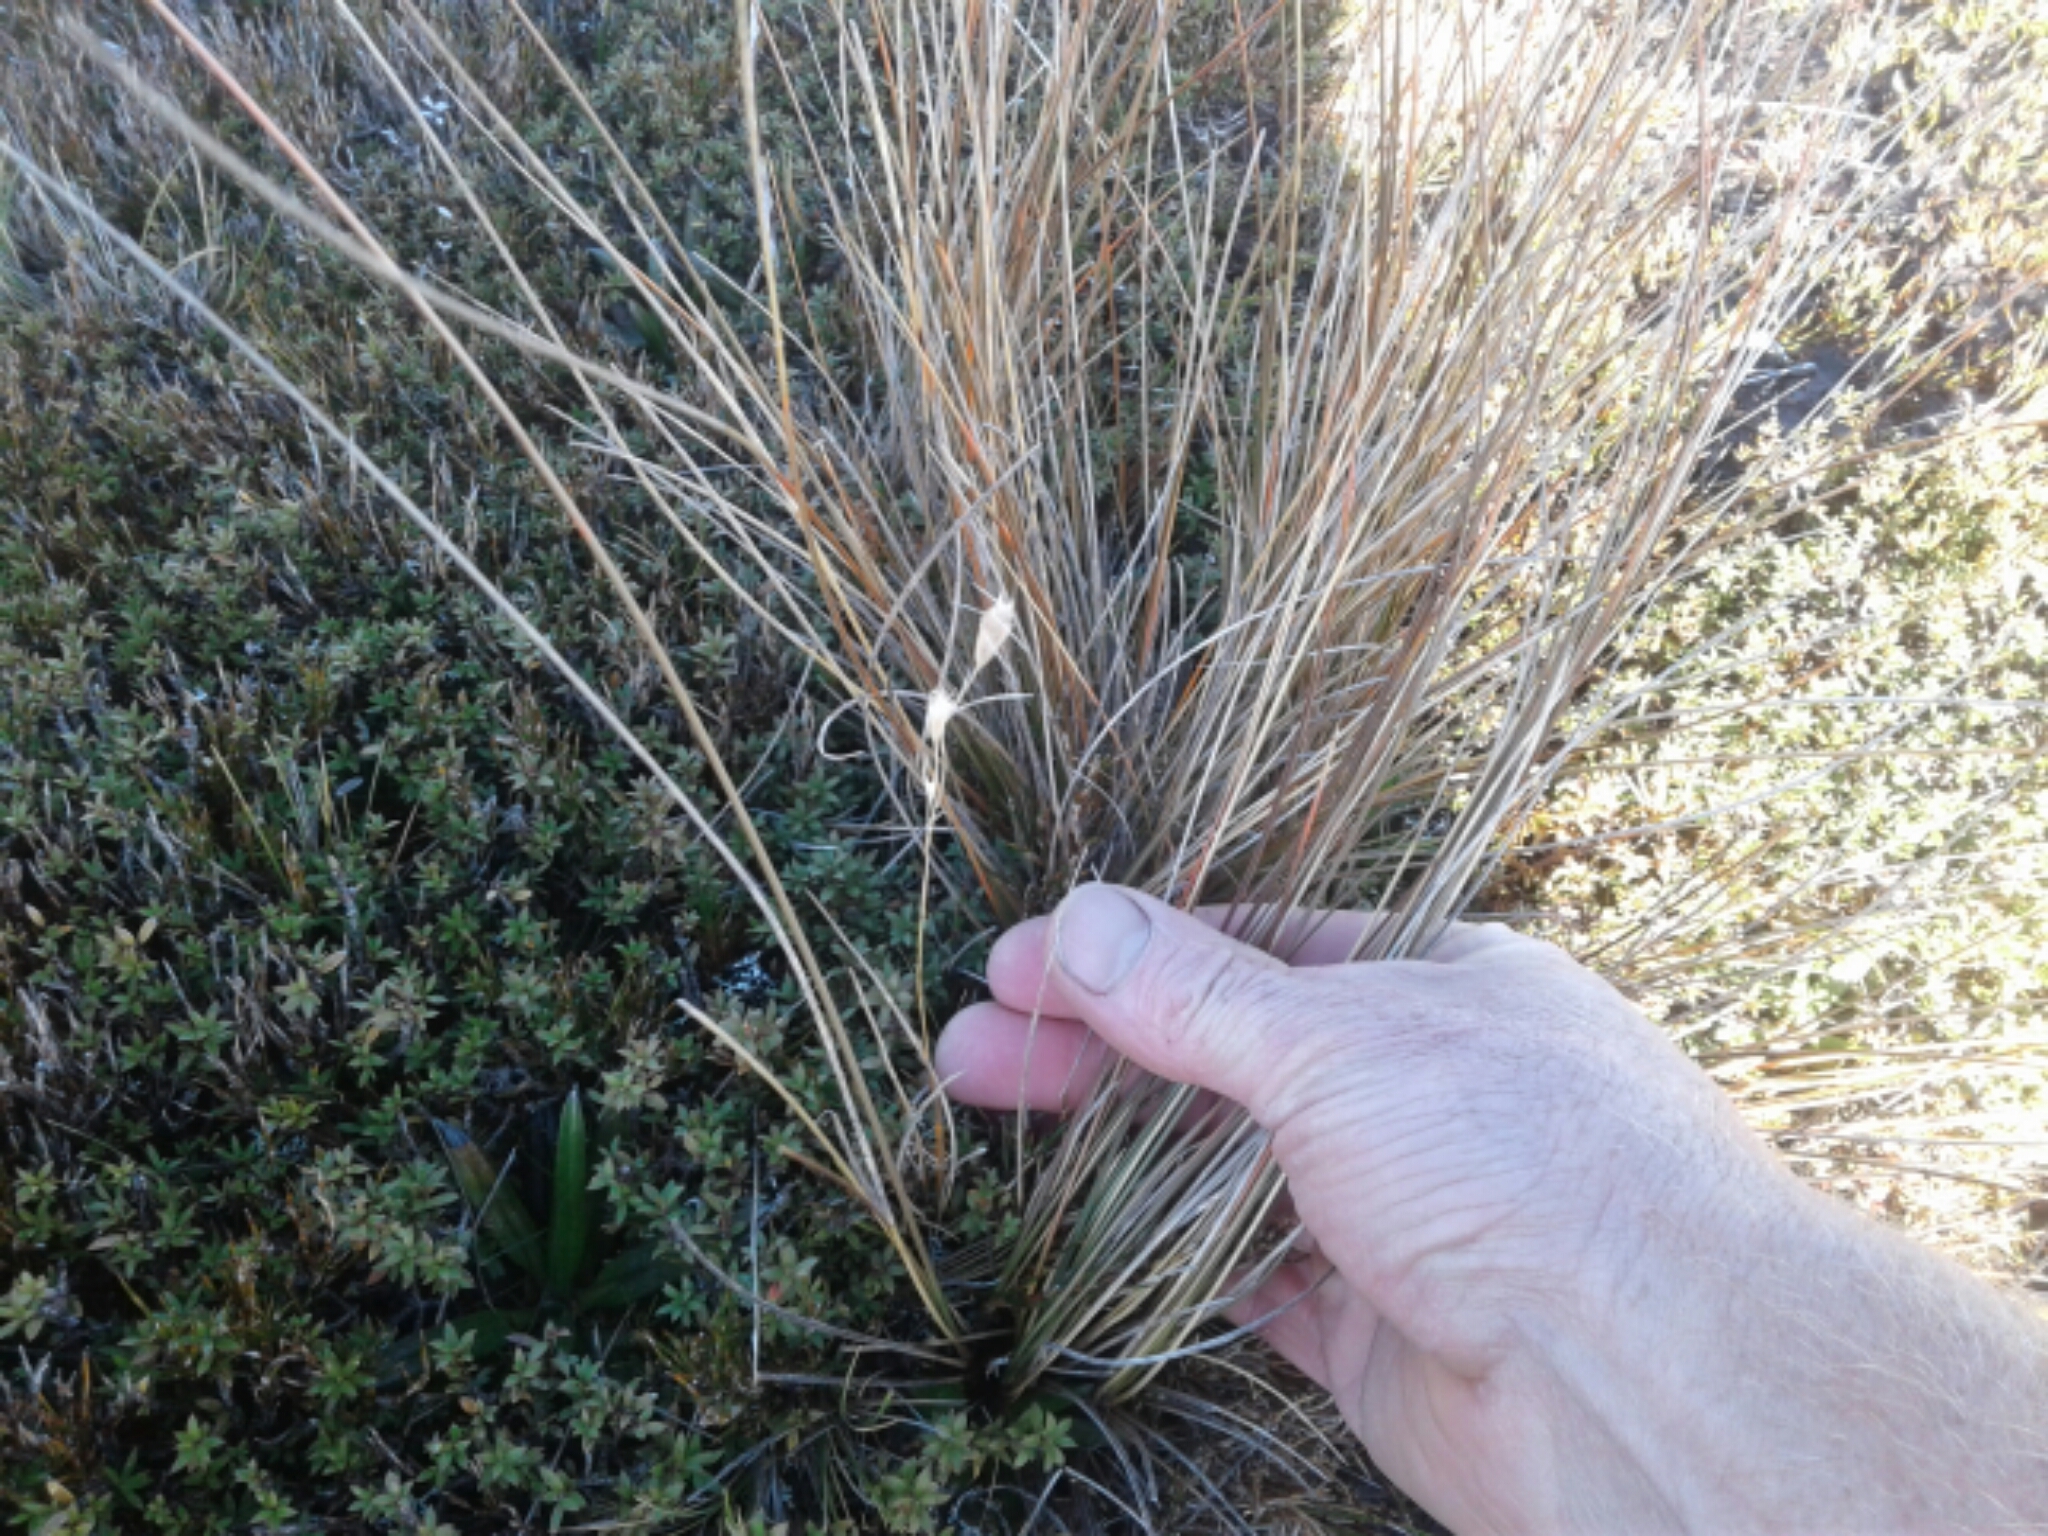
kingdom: Plantae
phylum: Tracheophyta
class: Liliopsida
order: Poales
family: Poaceae
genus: Chionochloa
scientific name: Chionochloa juncea
